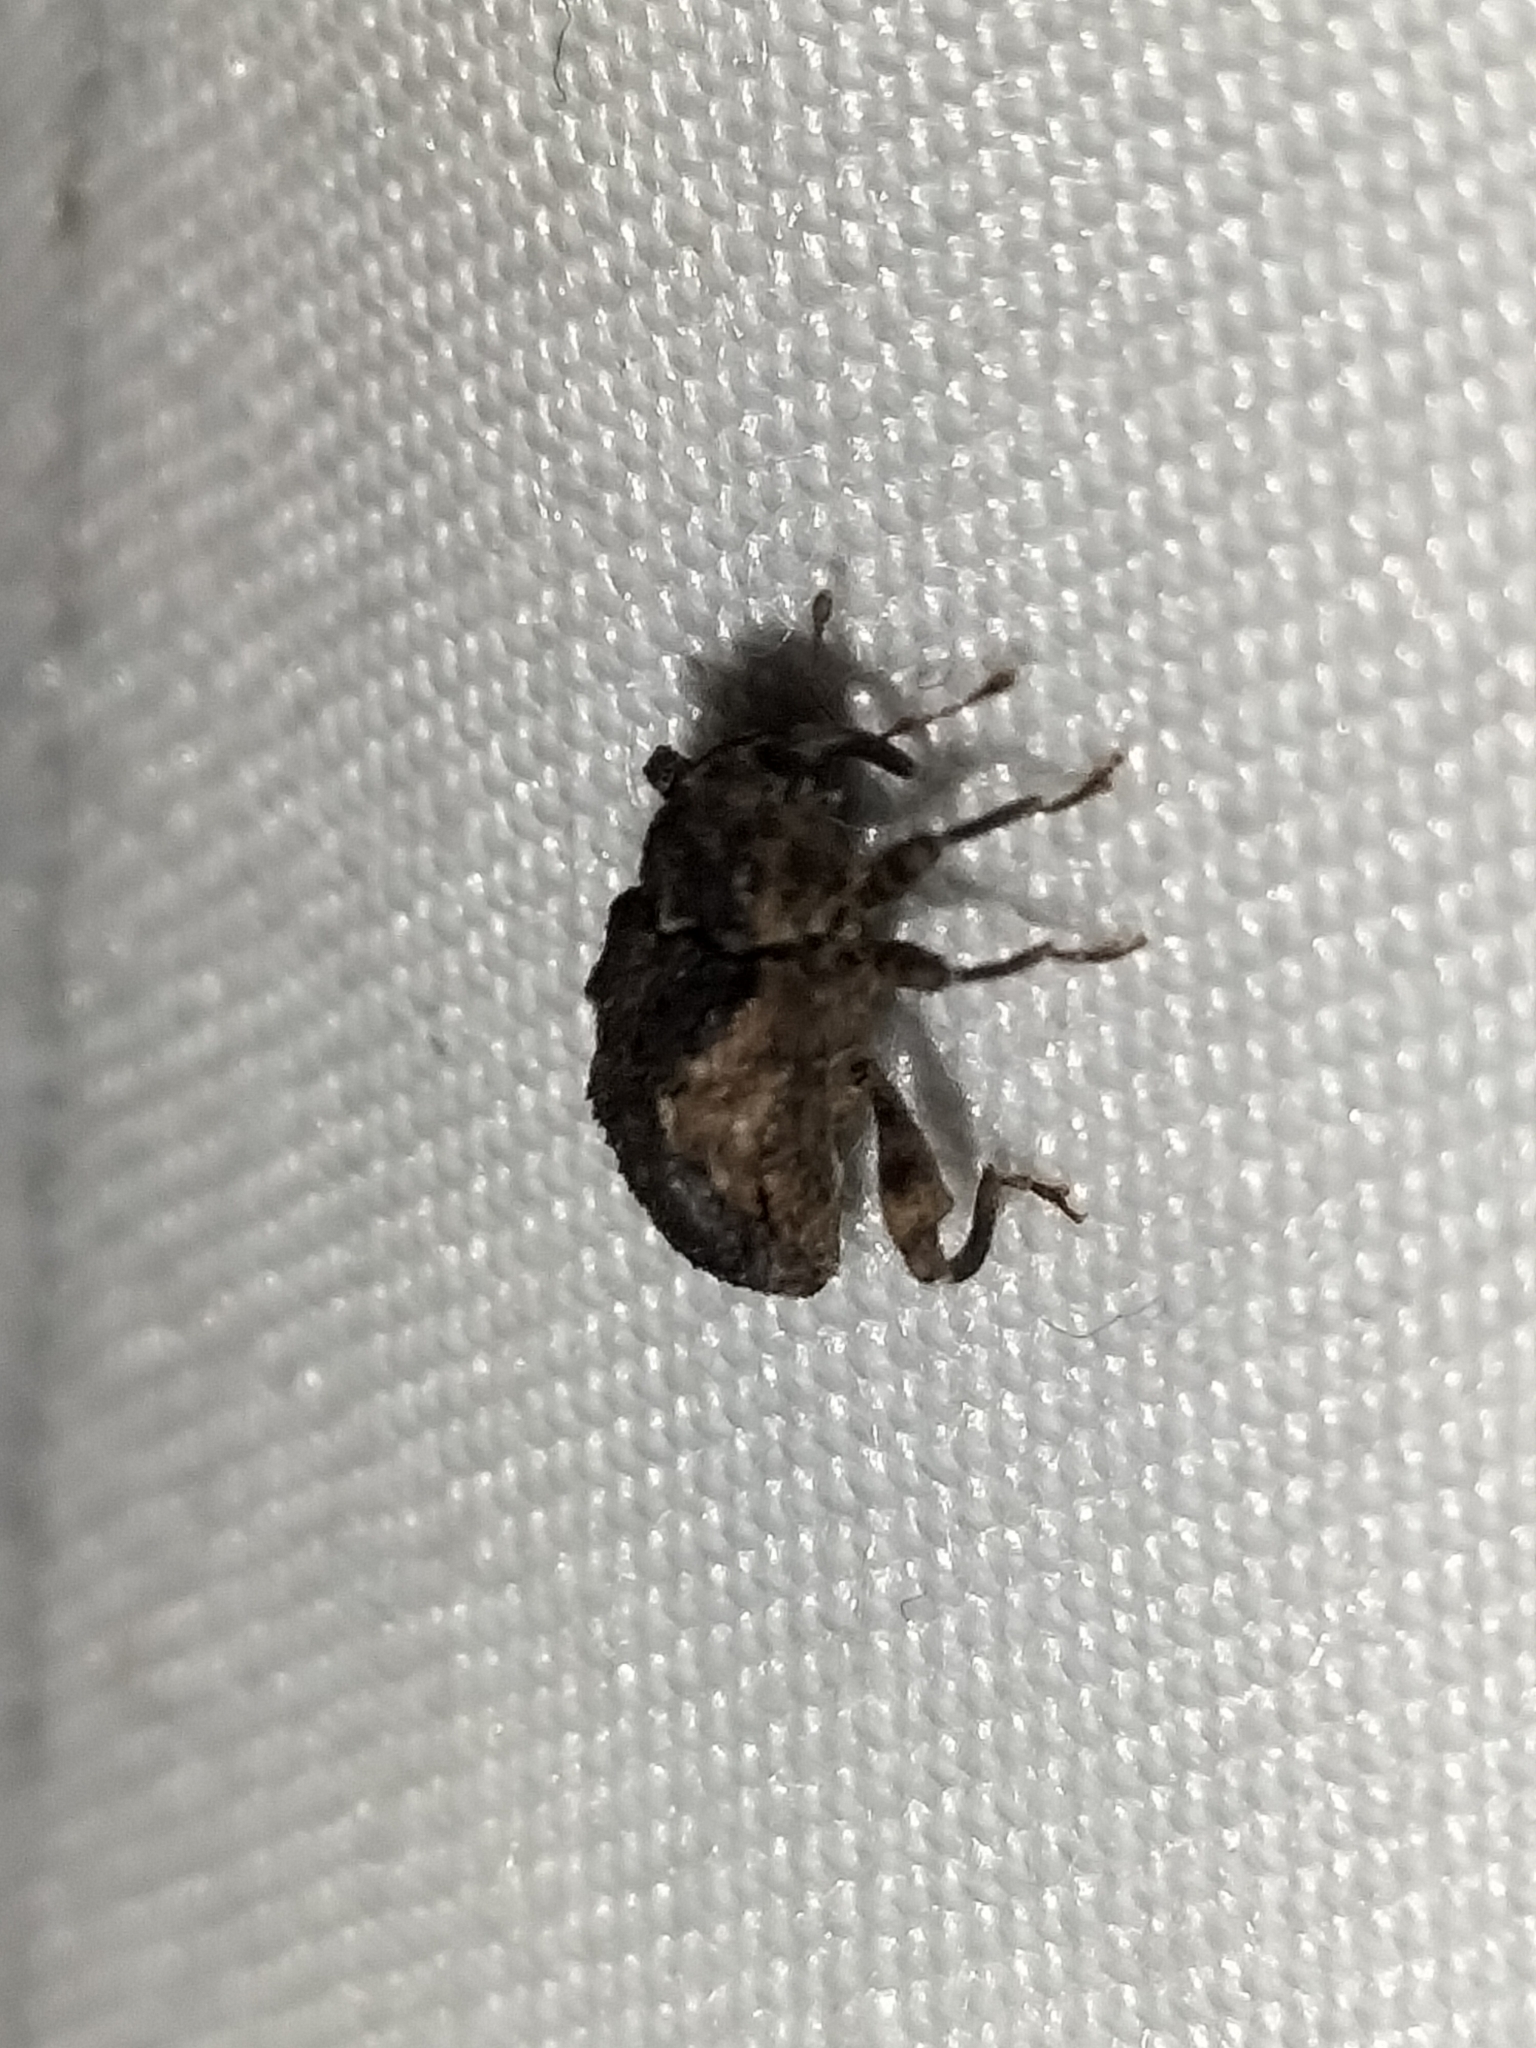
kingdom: Animalia
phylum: Arthropoda
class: Insecta
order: Coleoptera
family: Curculionidae
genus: Hyperiosoma
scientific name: Hyperiosoma falcatum
